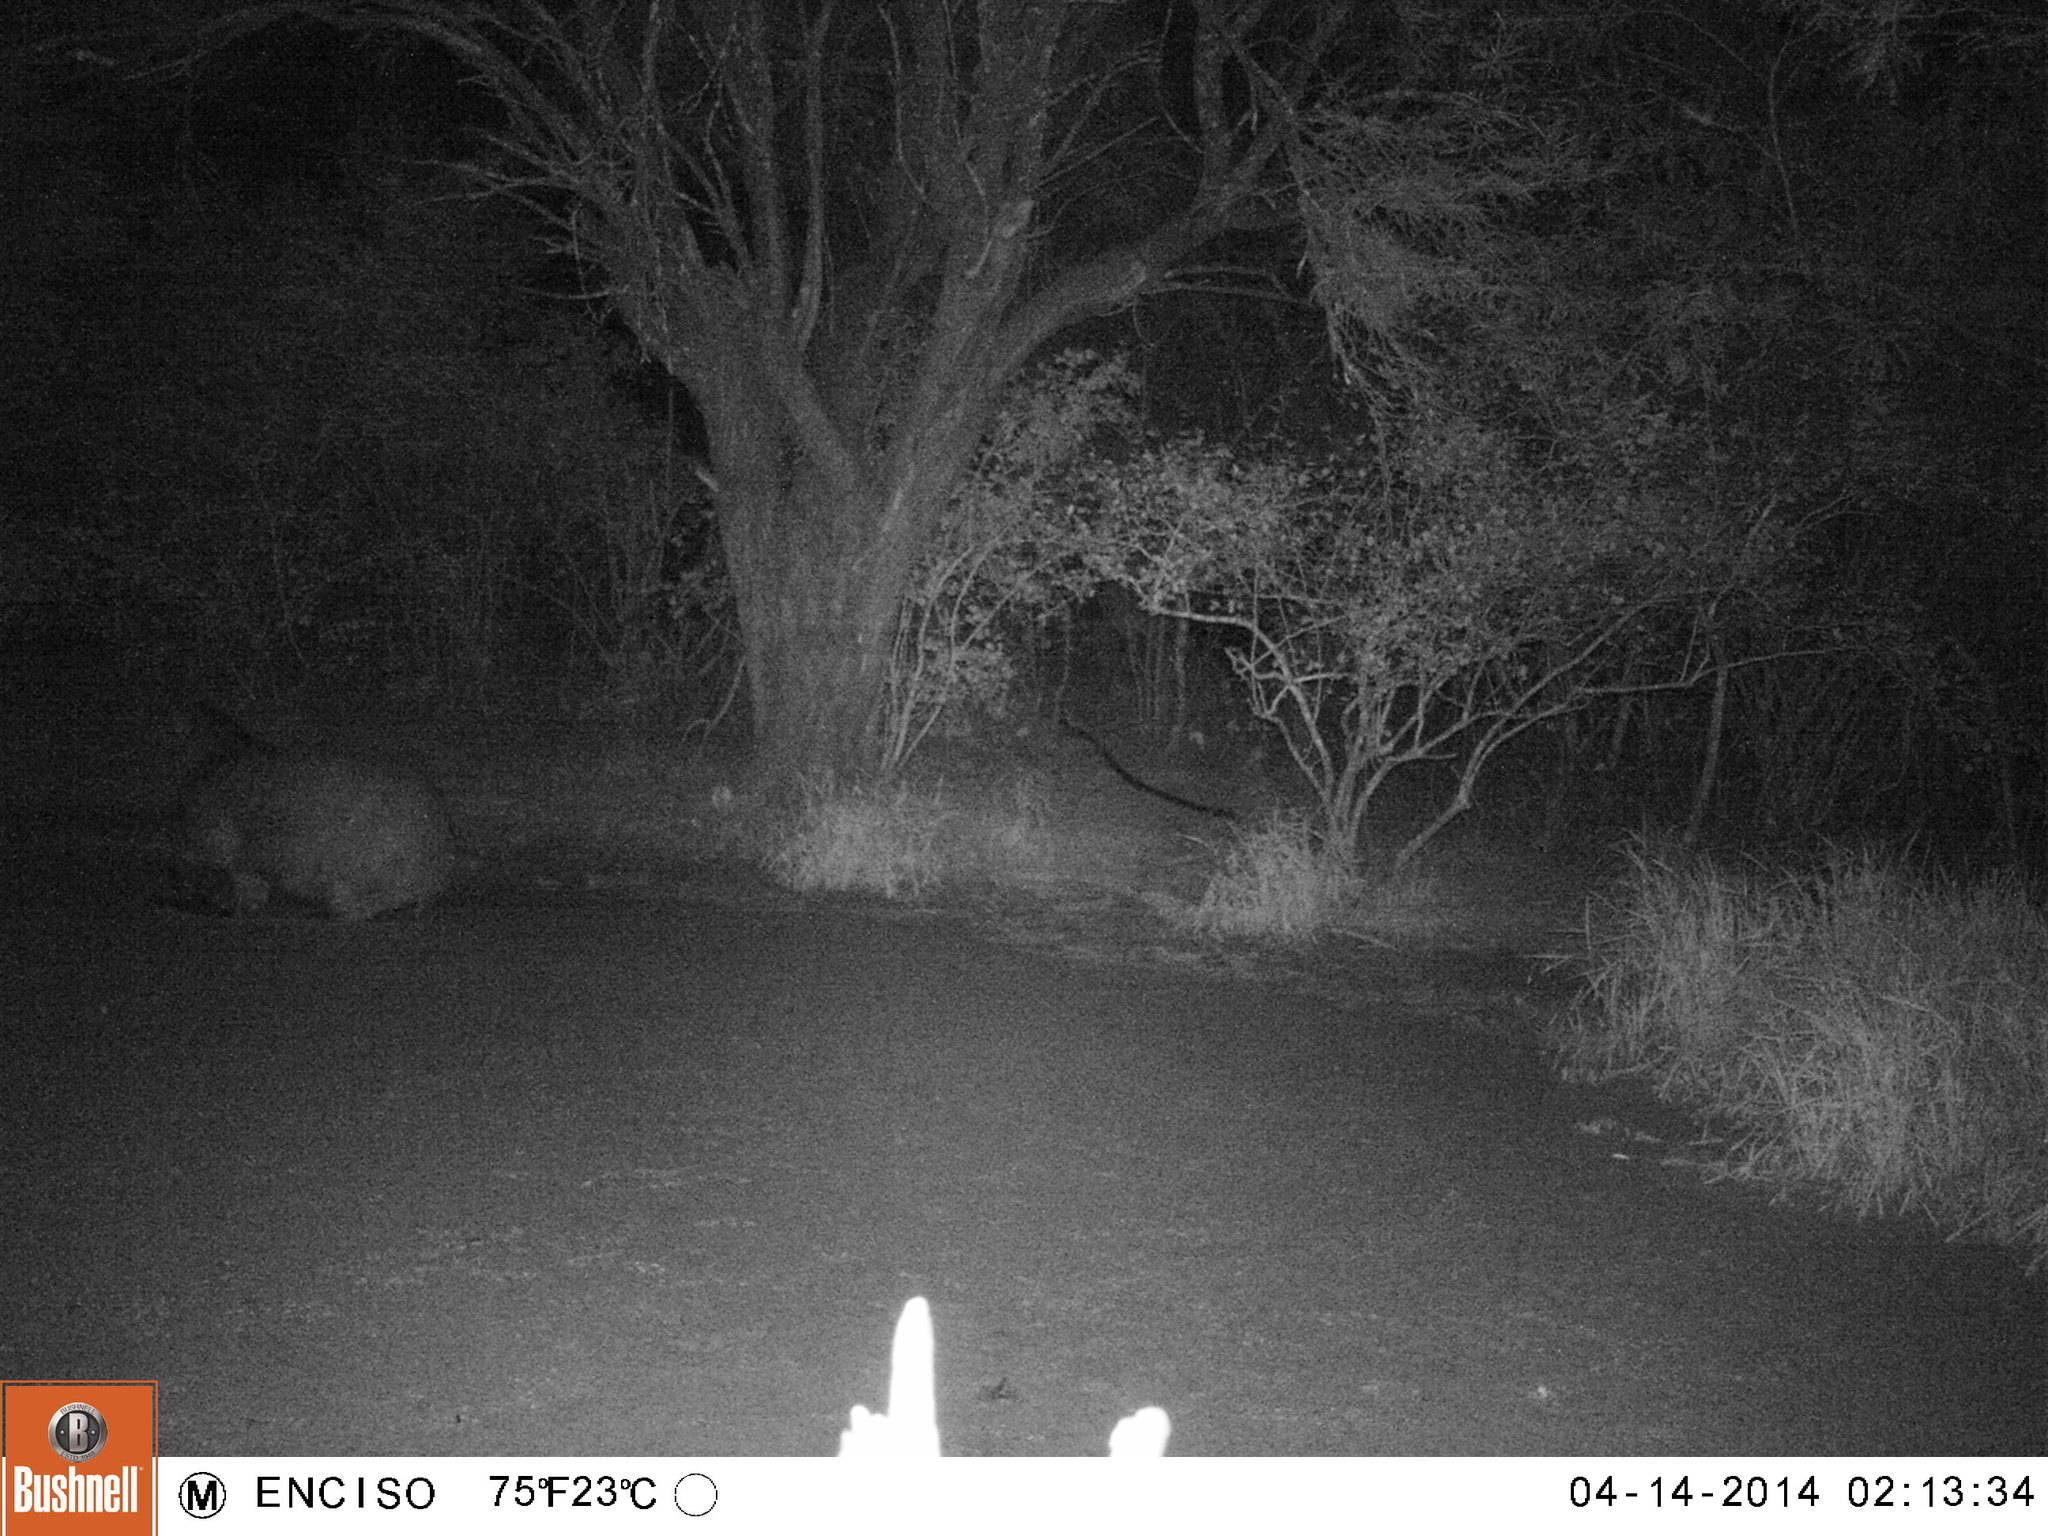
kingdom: Animalia
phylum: Chordata
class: Mammalia
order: Perissodactyla
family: Tapiridae
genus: Tapirus
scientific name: Tapirus terrestris
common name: Brazilian tapir
